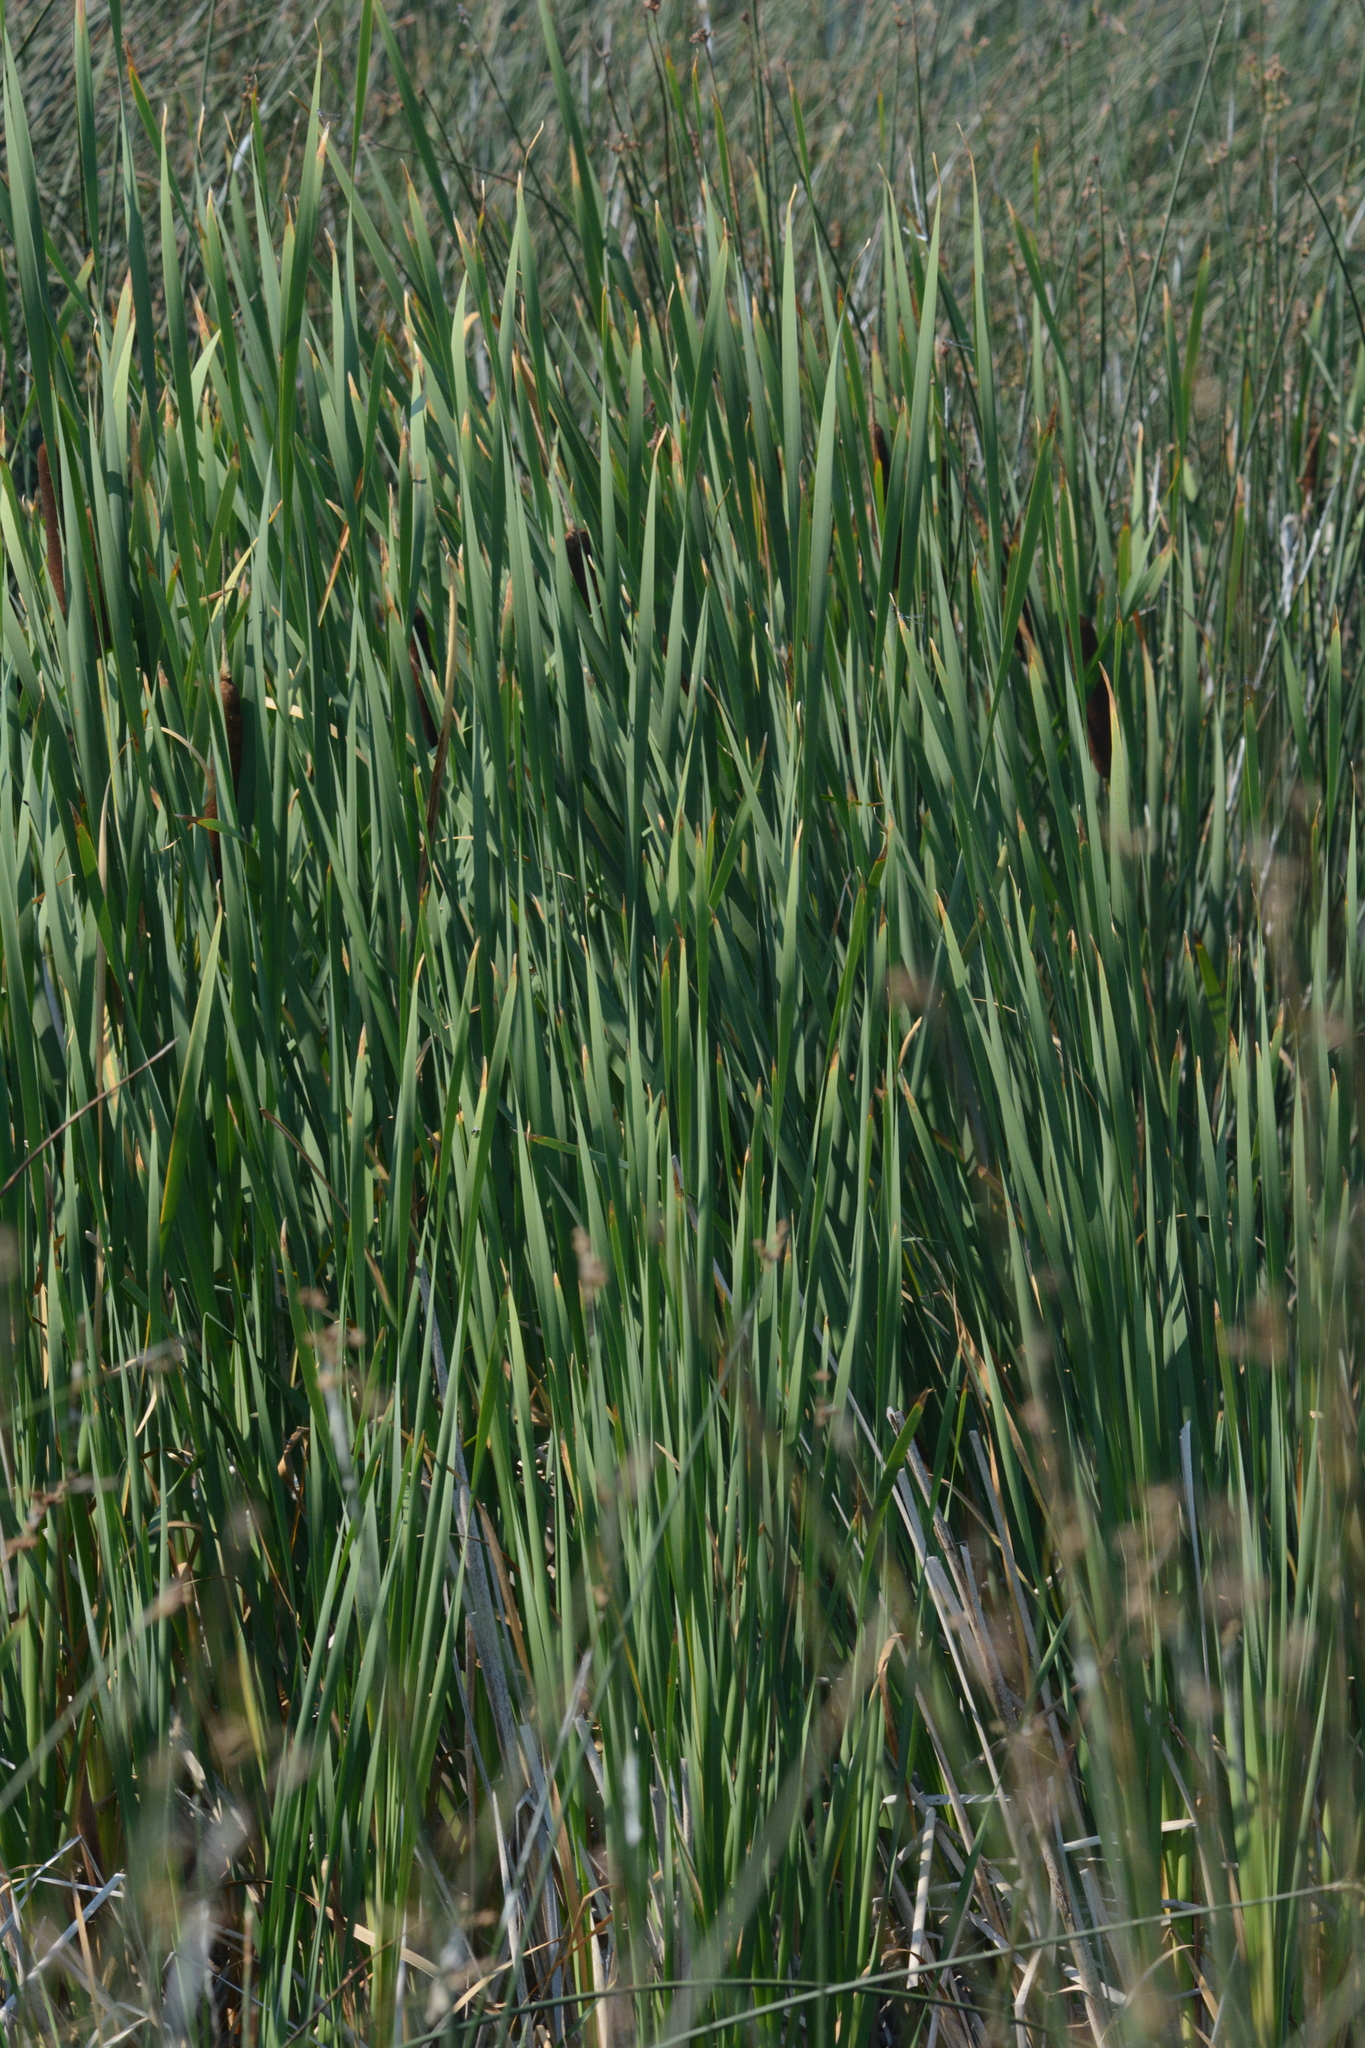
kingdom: Plantae
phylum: Tracheophyta
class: Liliopsida
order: Poales
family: Typhaceae
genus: Typha
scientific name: Typha latifolia
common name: Broadleaf cattail
